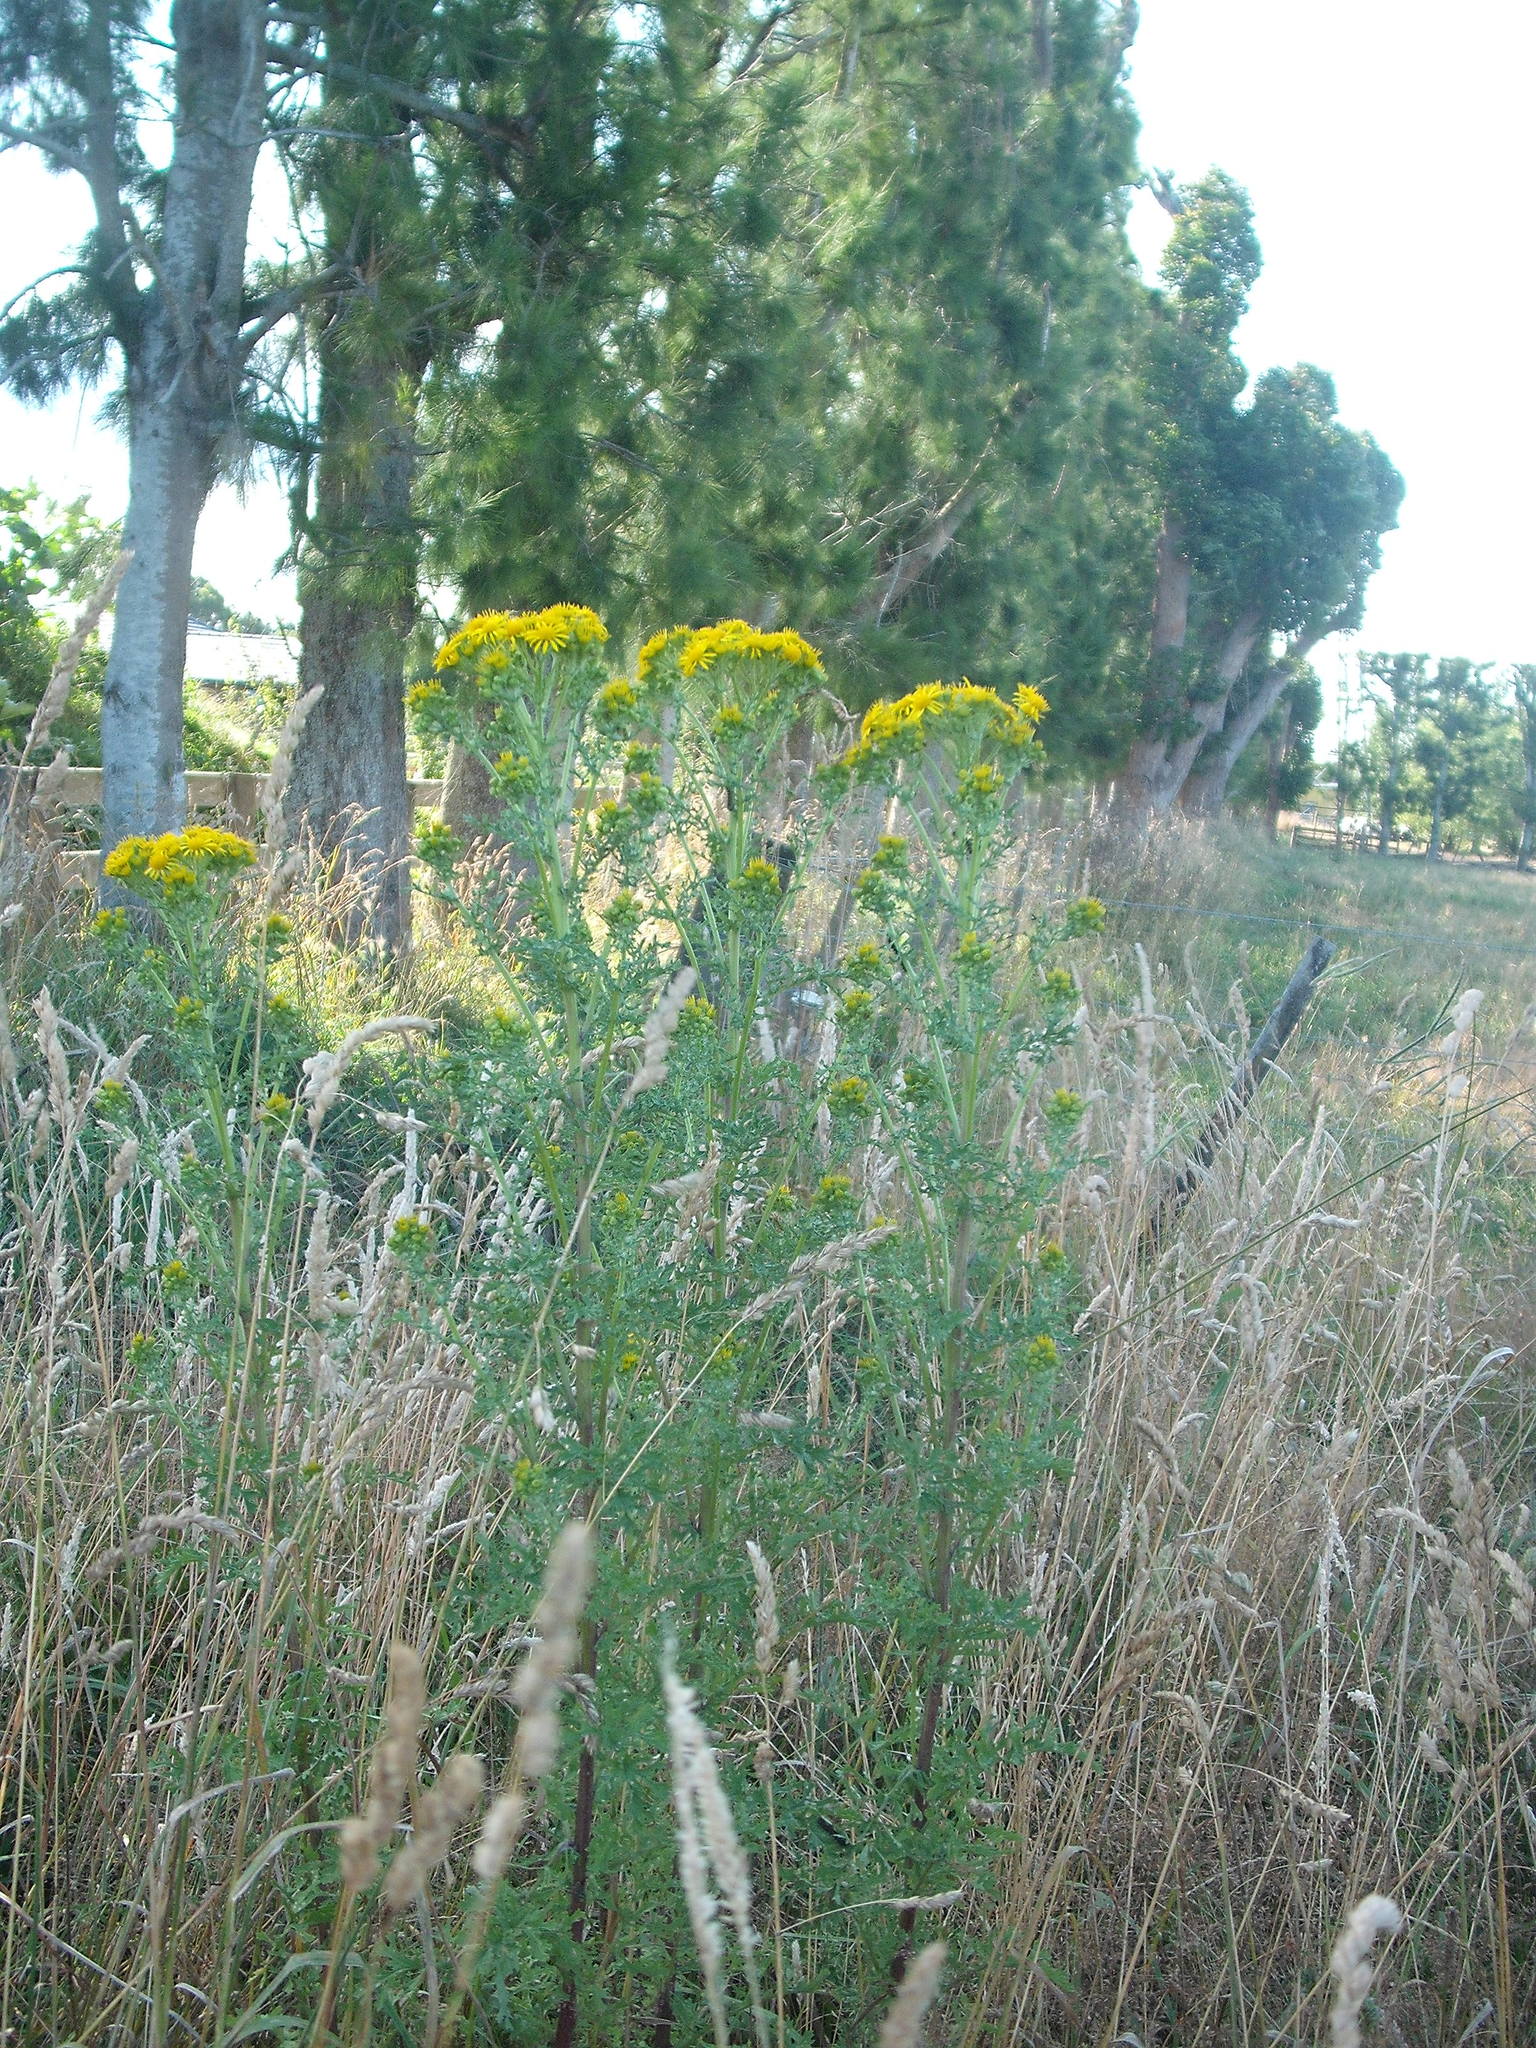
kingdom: Plantae
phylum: Tracheophyta
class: Magnoliopsida
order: Asterales
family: Asteraceae
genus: Jacobaea
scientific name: Jacobaea vulgaris
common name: Stinking willie
